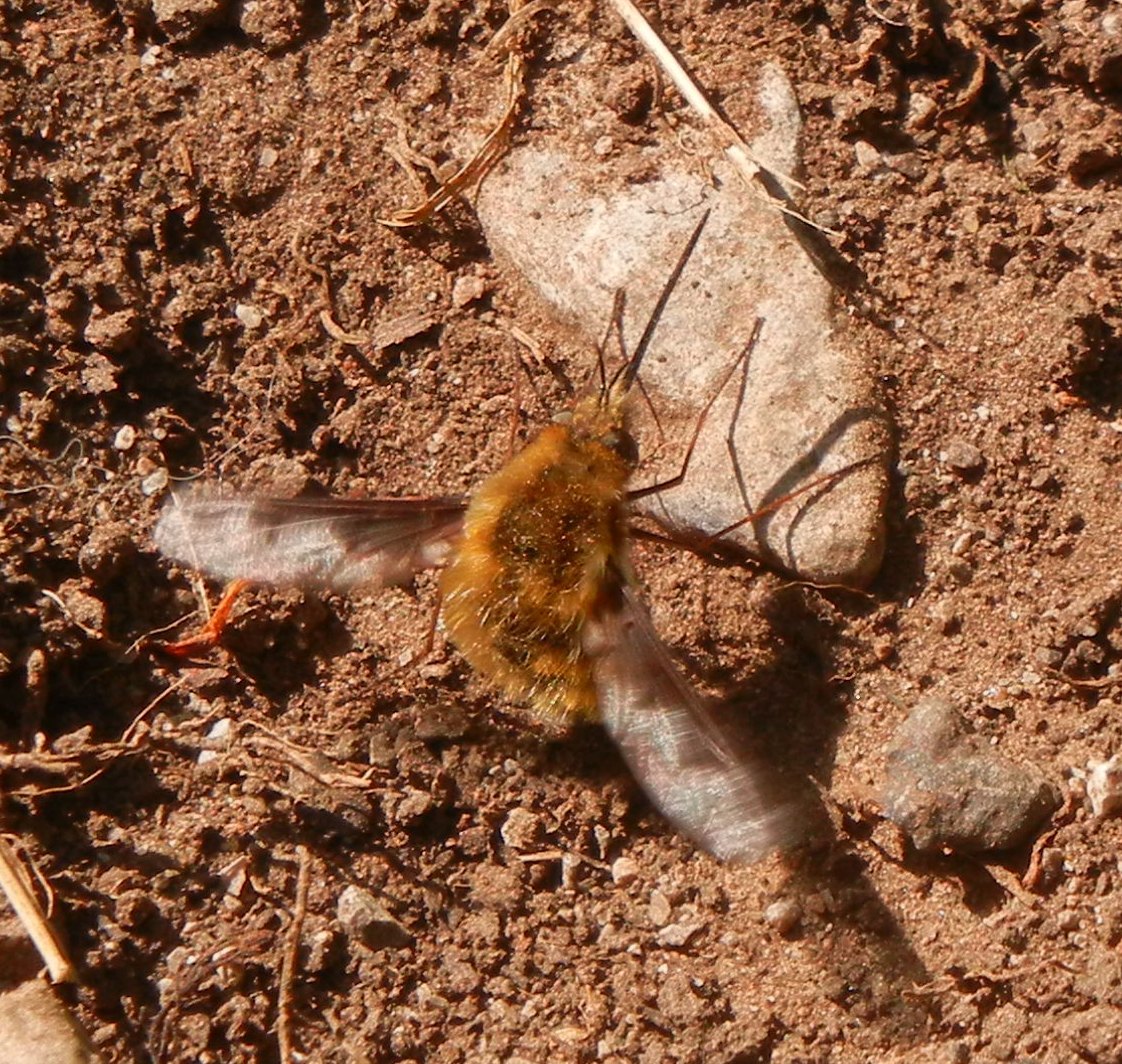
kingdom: Animalia
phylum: Arthropoda
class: Insecta
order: Diptera
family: Bombyliidae
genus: Bombylius
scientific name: Bombylius major
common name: Bee fly
